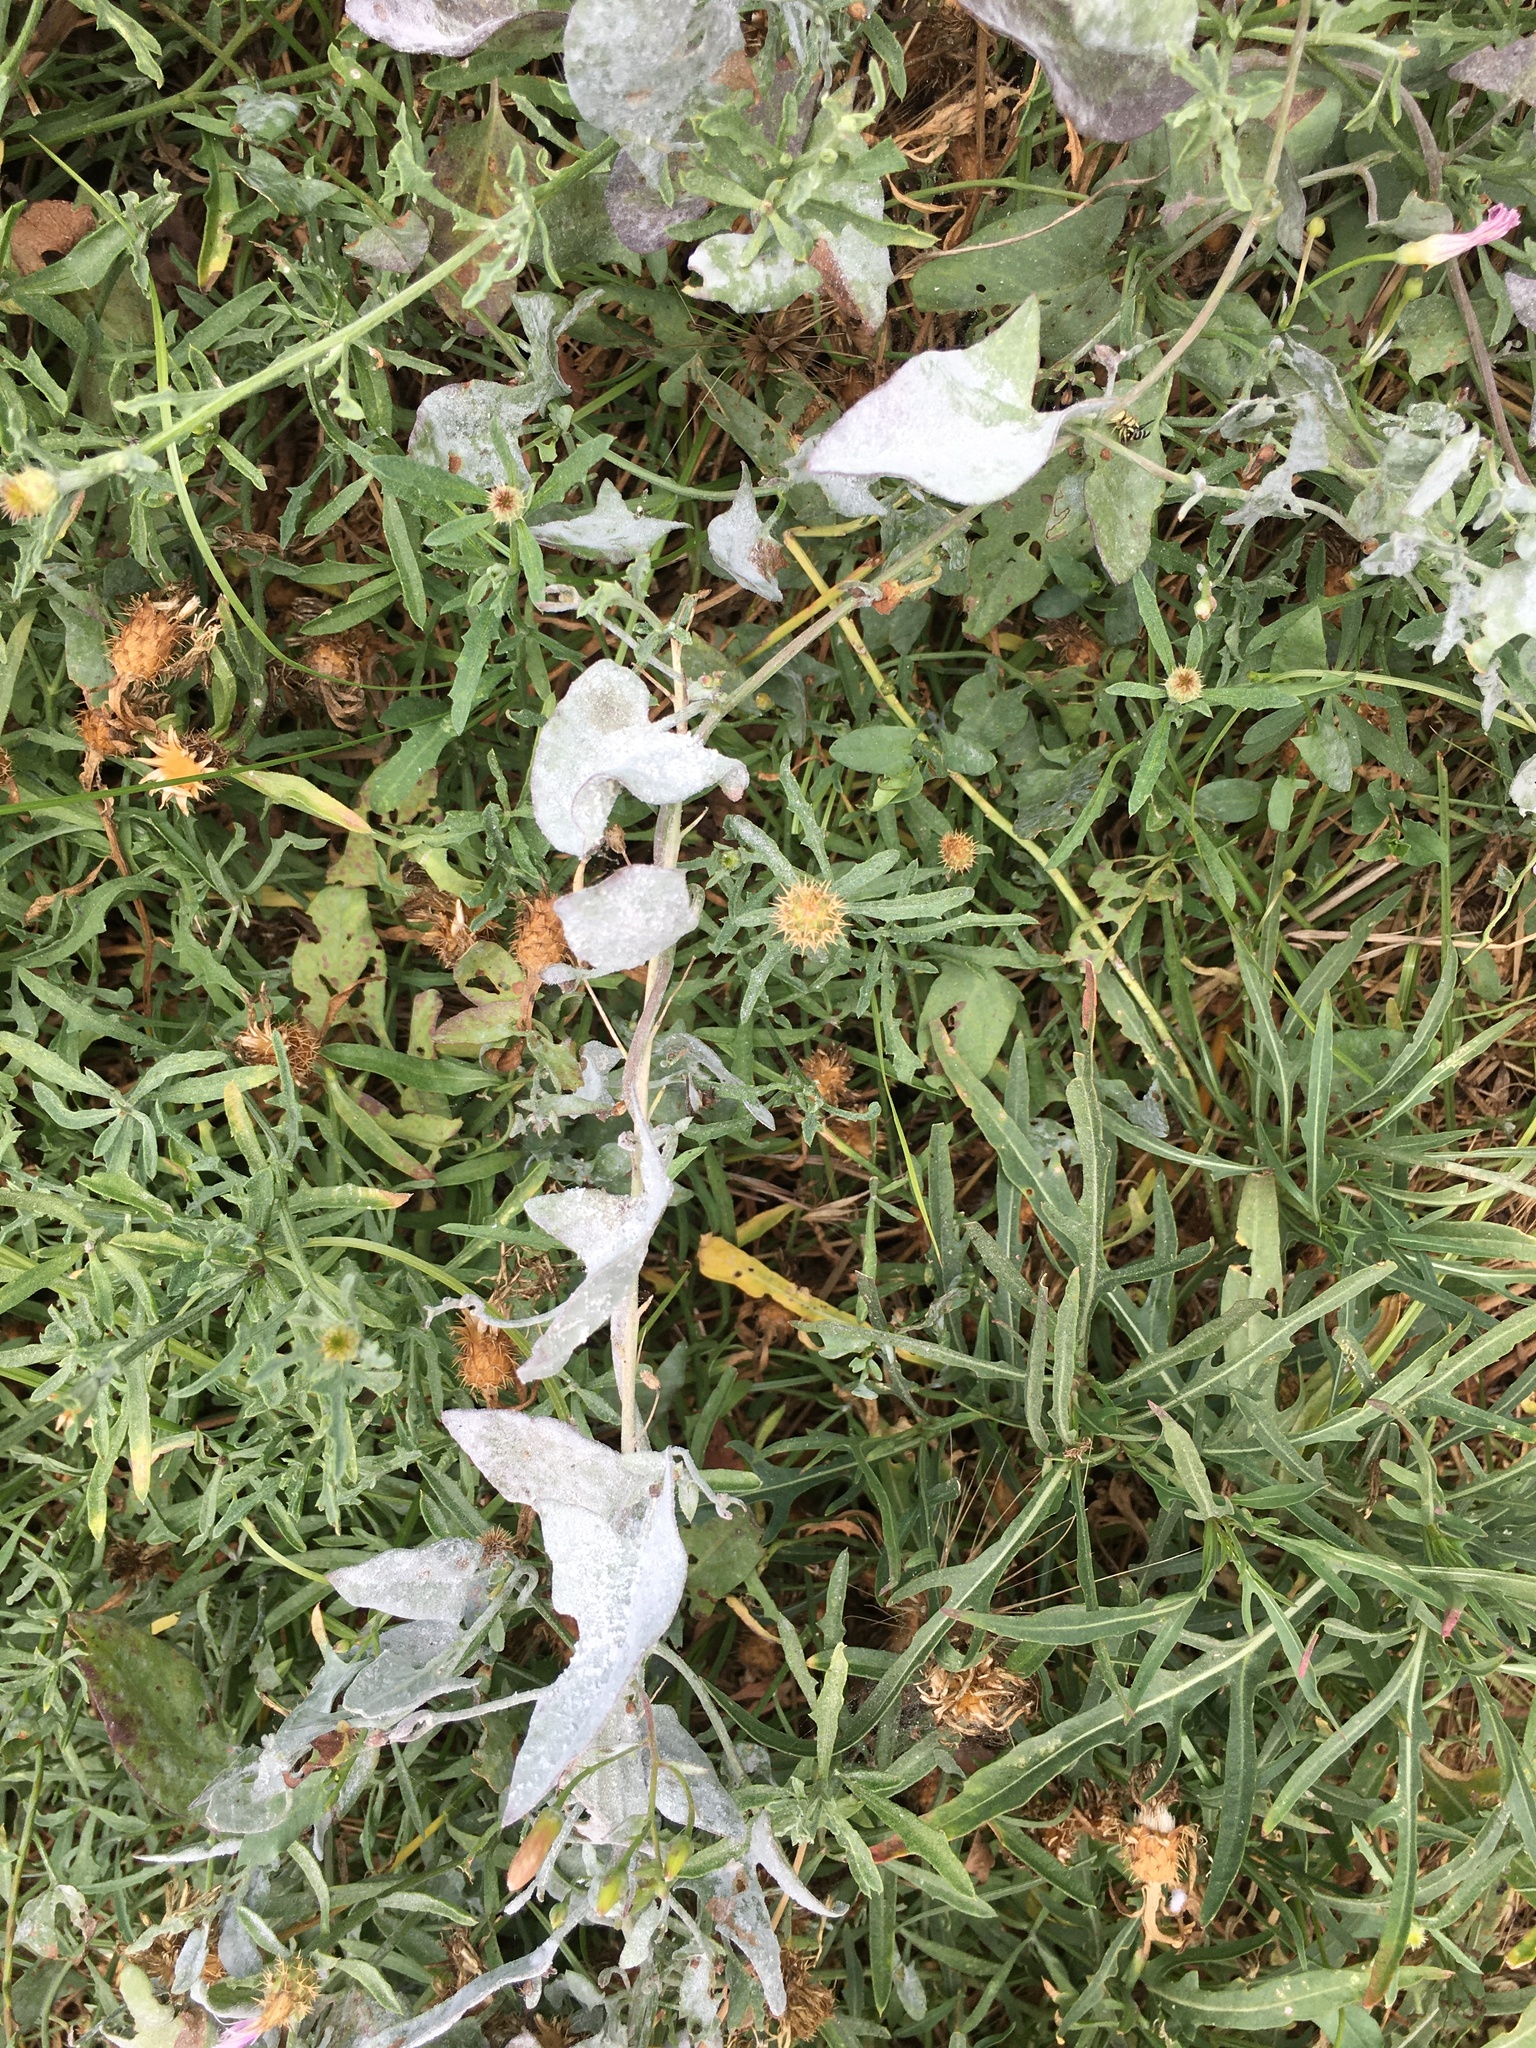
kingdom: Plantae
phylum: Tracheophyta
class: Magnoliopsida
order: Solanales
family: Convolvulaceae
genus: Convolvulus
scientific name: Convolvulus arvensis
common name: Field bindweed
